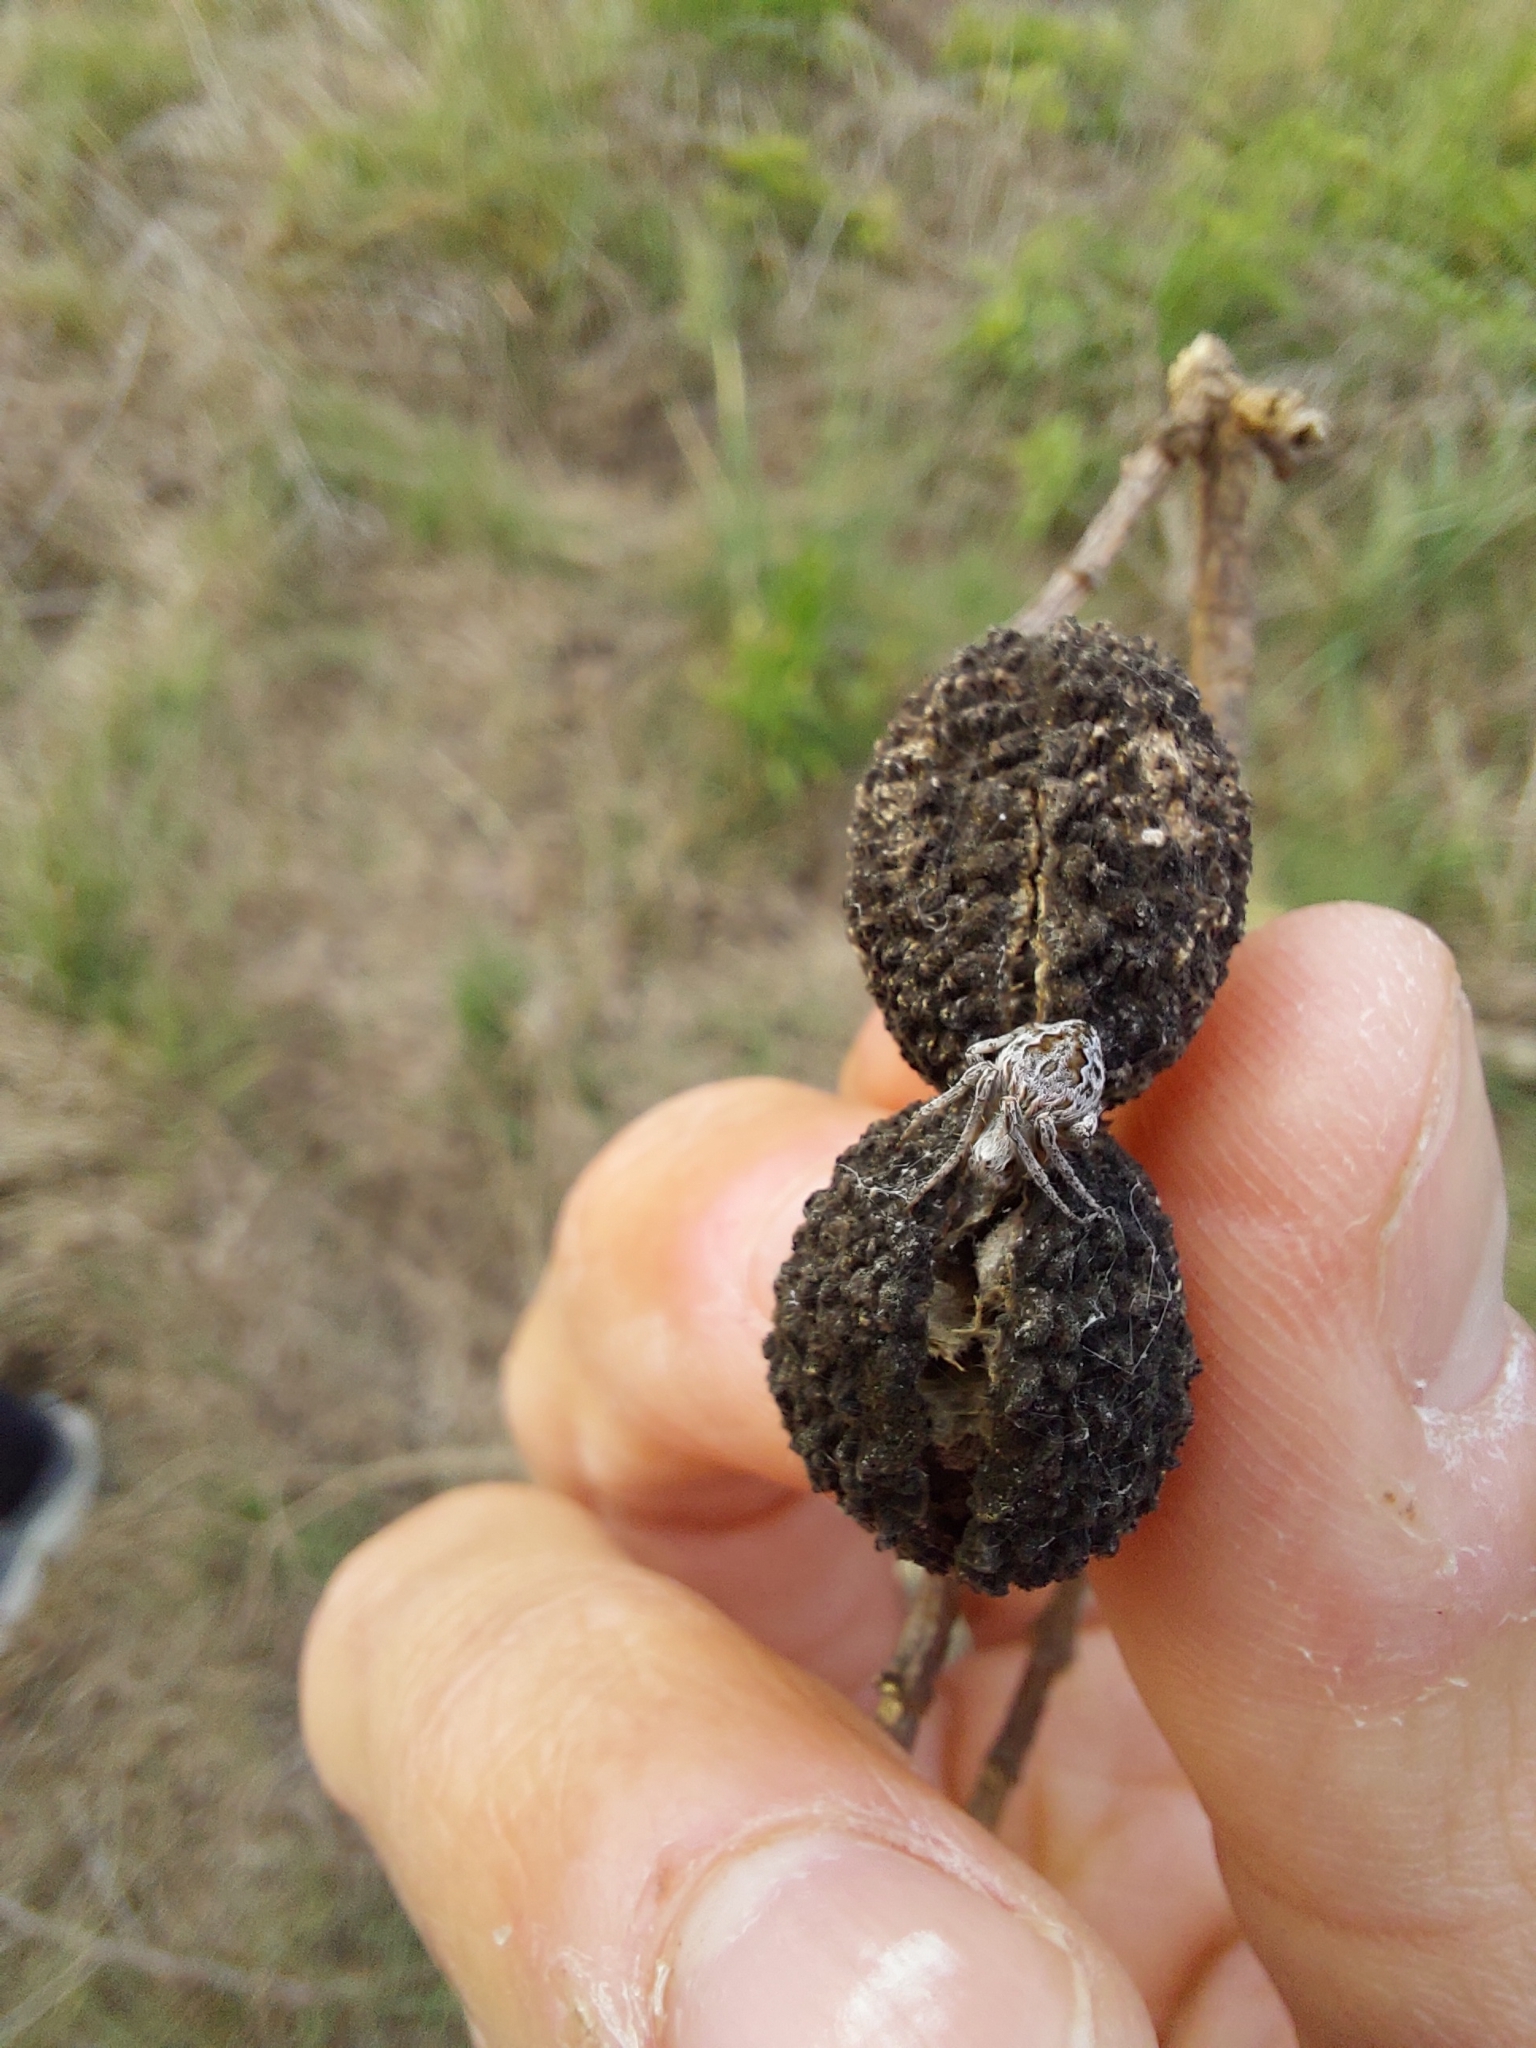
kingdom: Animalia
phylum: Arthropoda
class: Arachnida
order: Araneae
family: Araneidae
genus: Eustala
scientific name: Eustala
